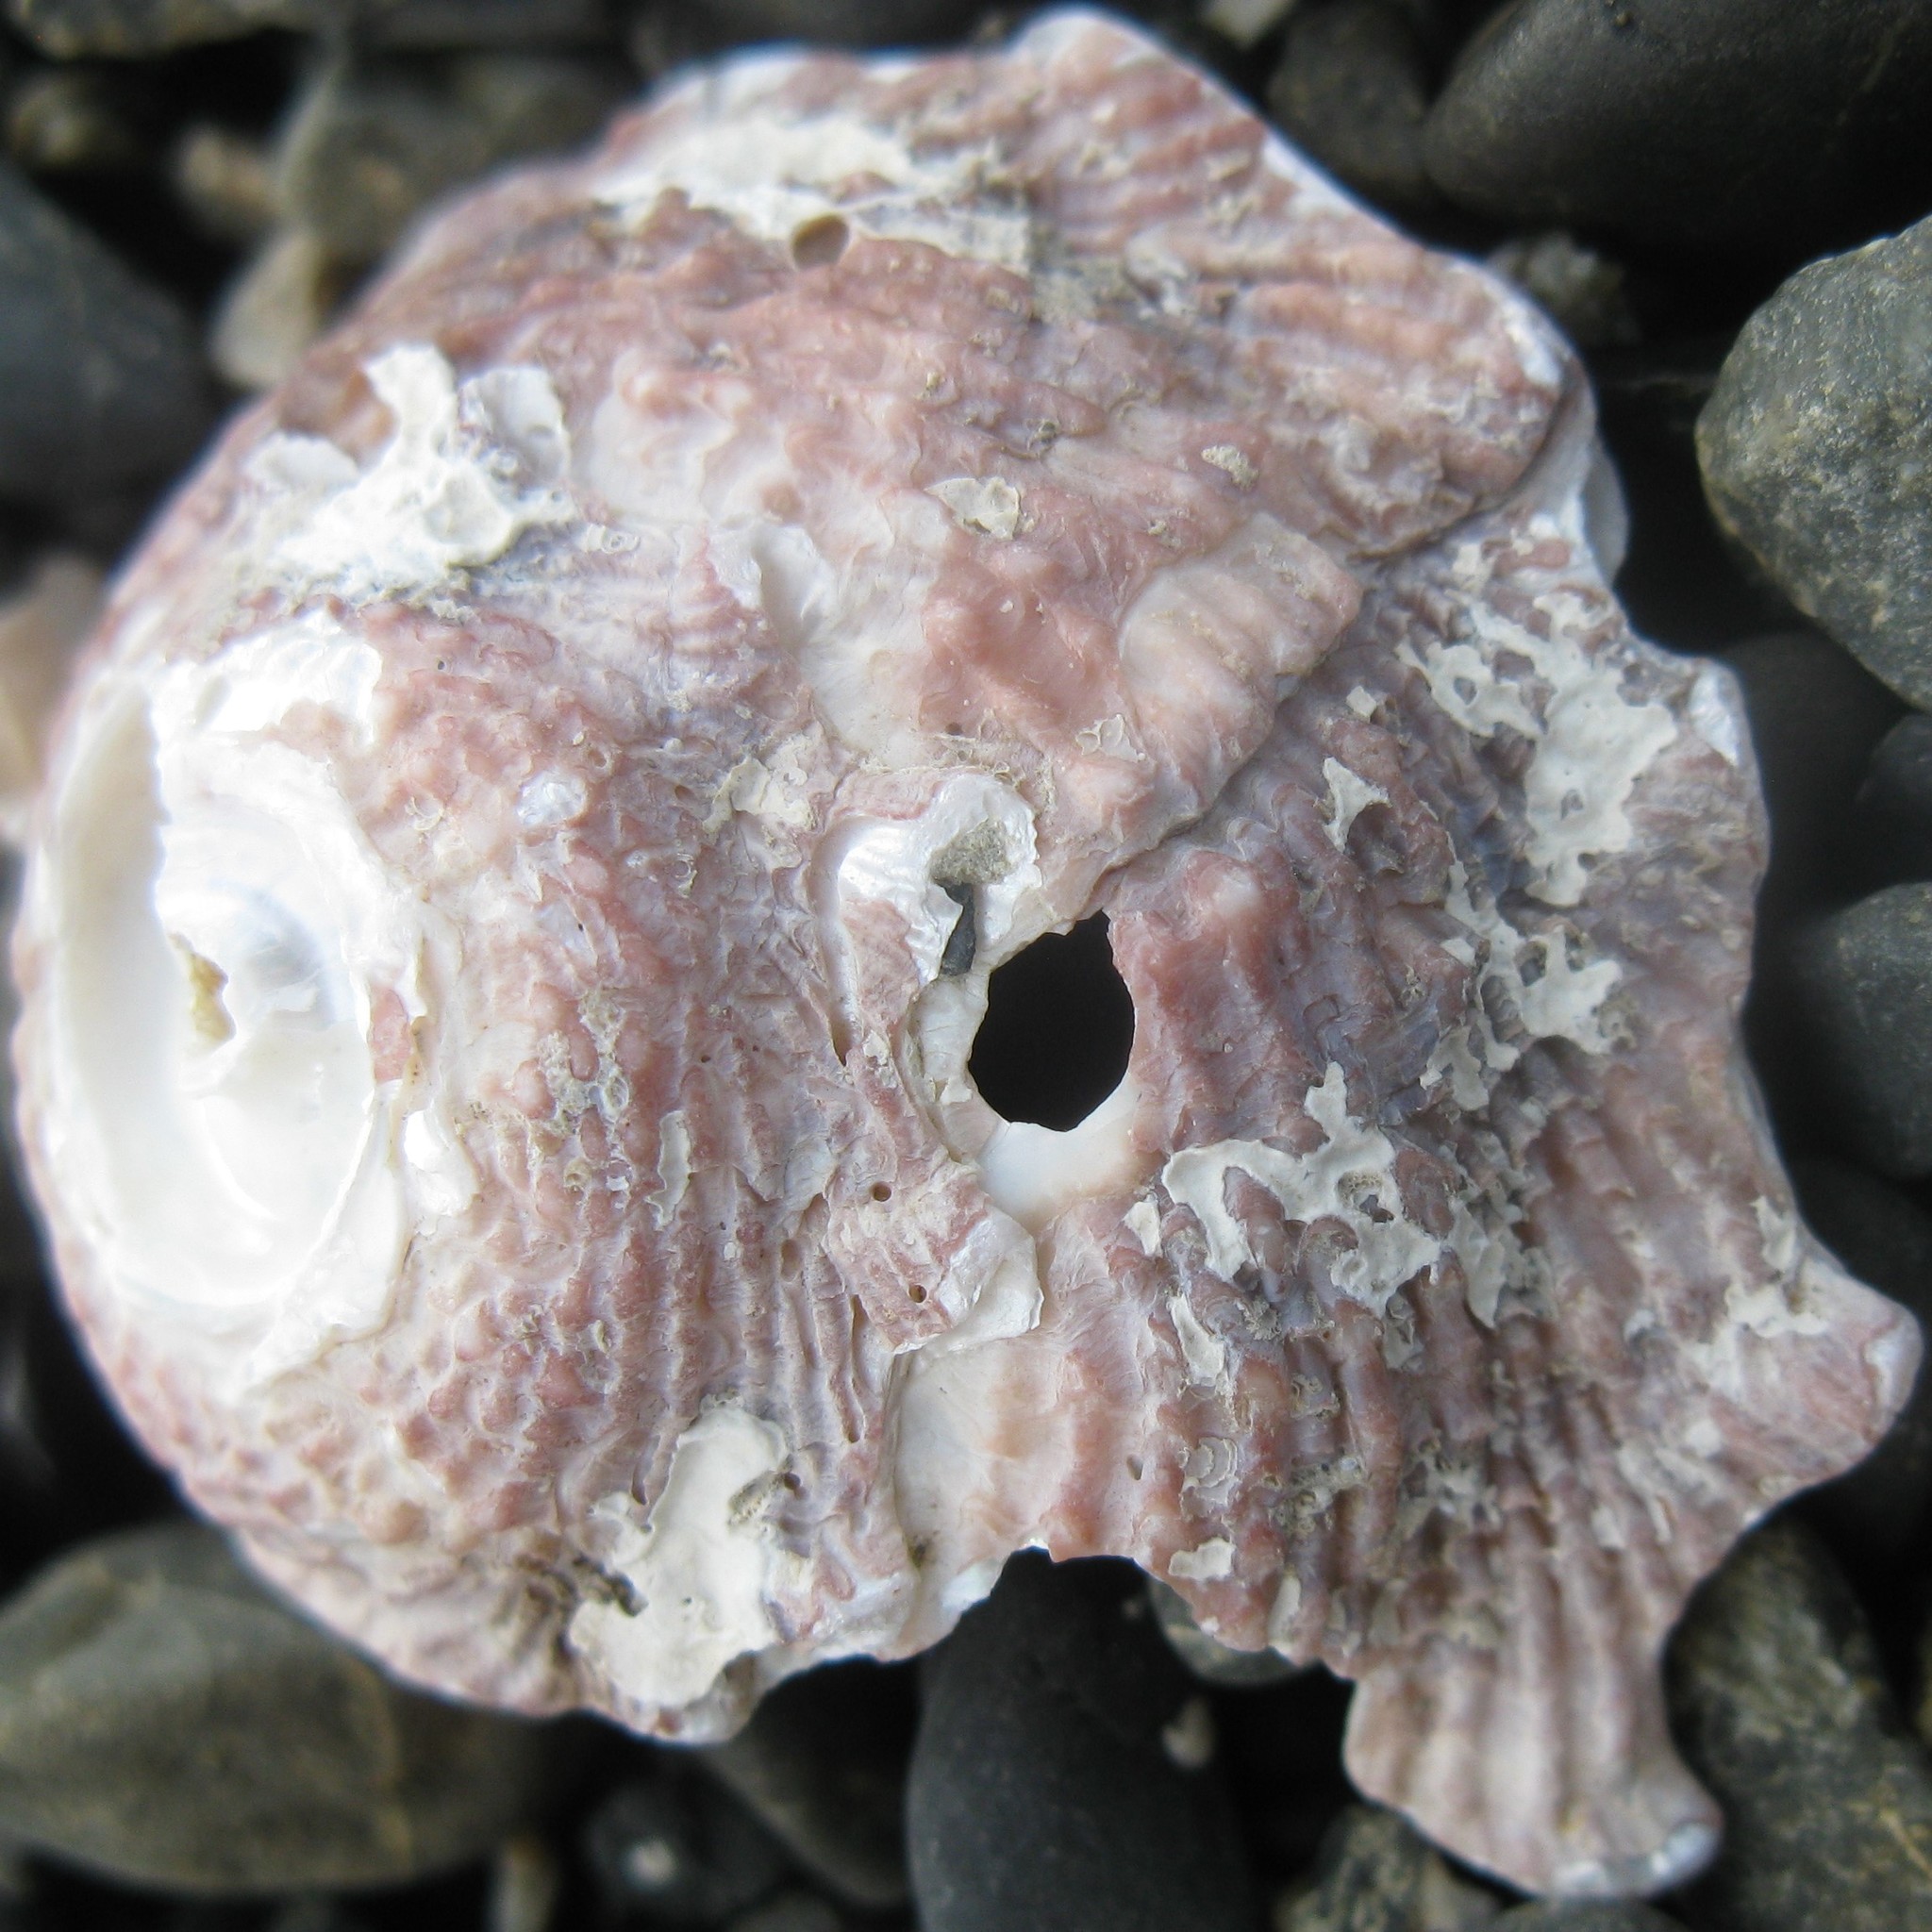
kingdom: Animalia
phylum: Mollusca
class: Gastropoda
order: Trochida
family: Turbinidae
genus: Astraea
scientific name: Astraea heliotropium
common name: Sun shell
